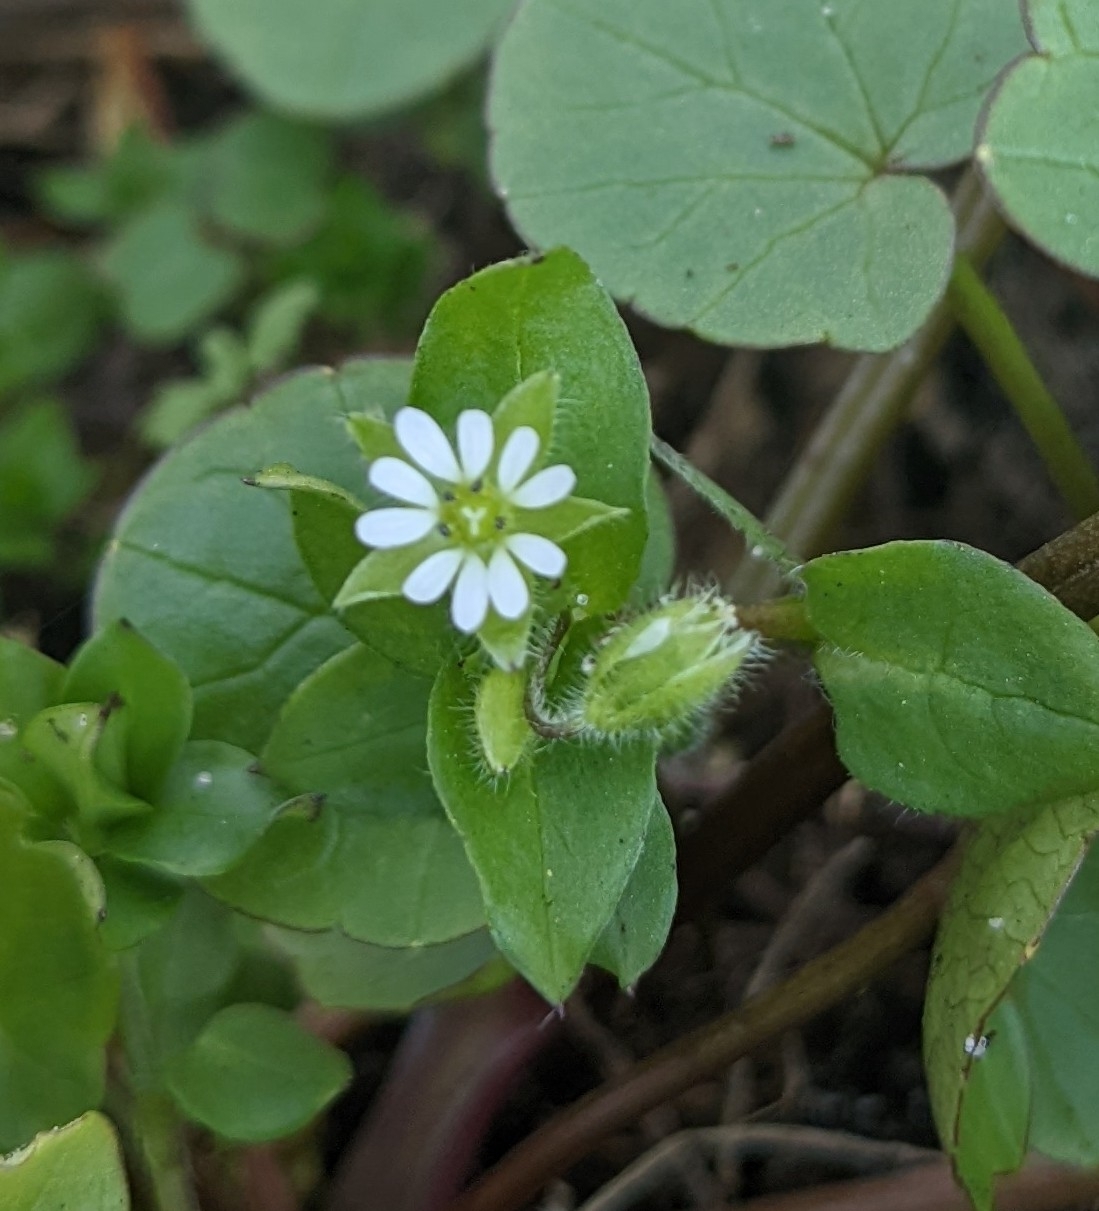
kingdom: Plantae
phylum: Tracheophyta
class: Magnoliopsida
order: Caryophyllales
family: Caryophyllaceae
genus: Stellaria
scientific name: Stellaria media
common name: Common chickweed
